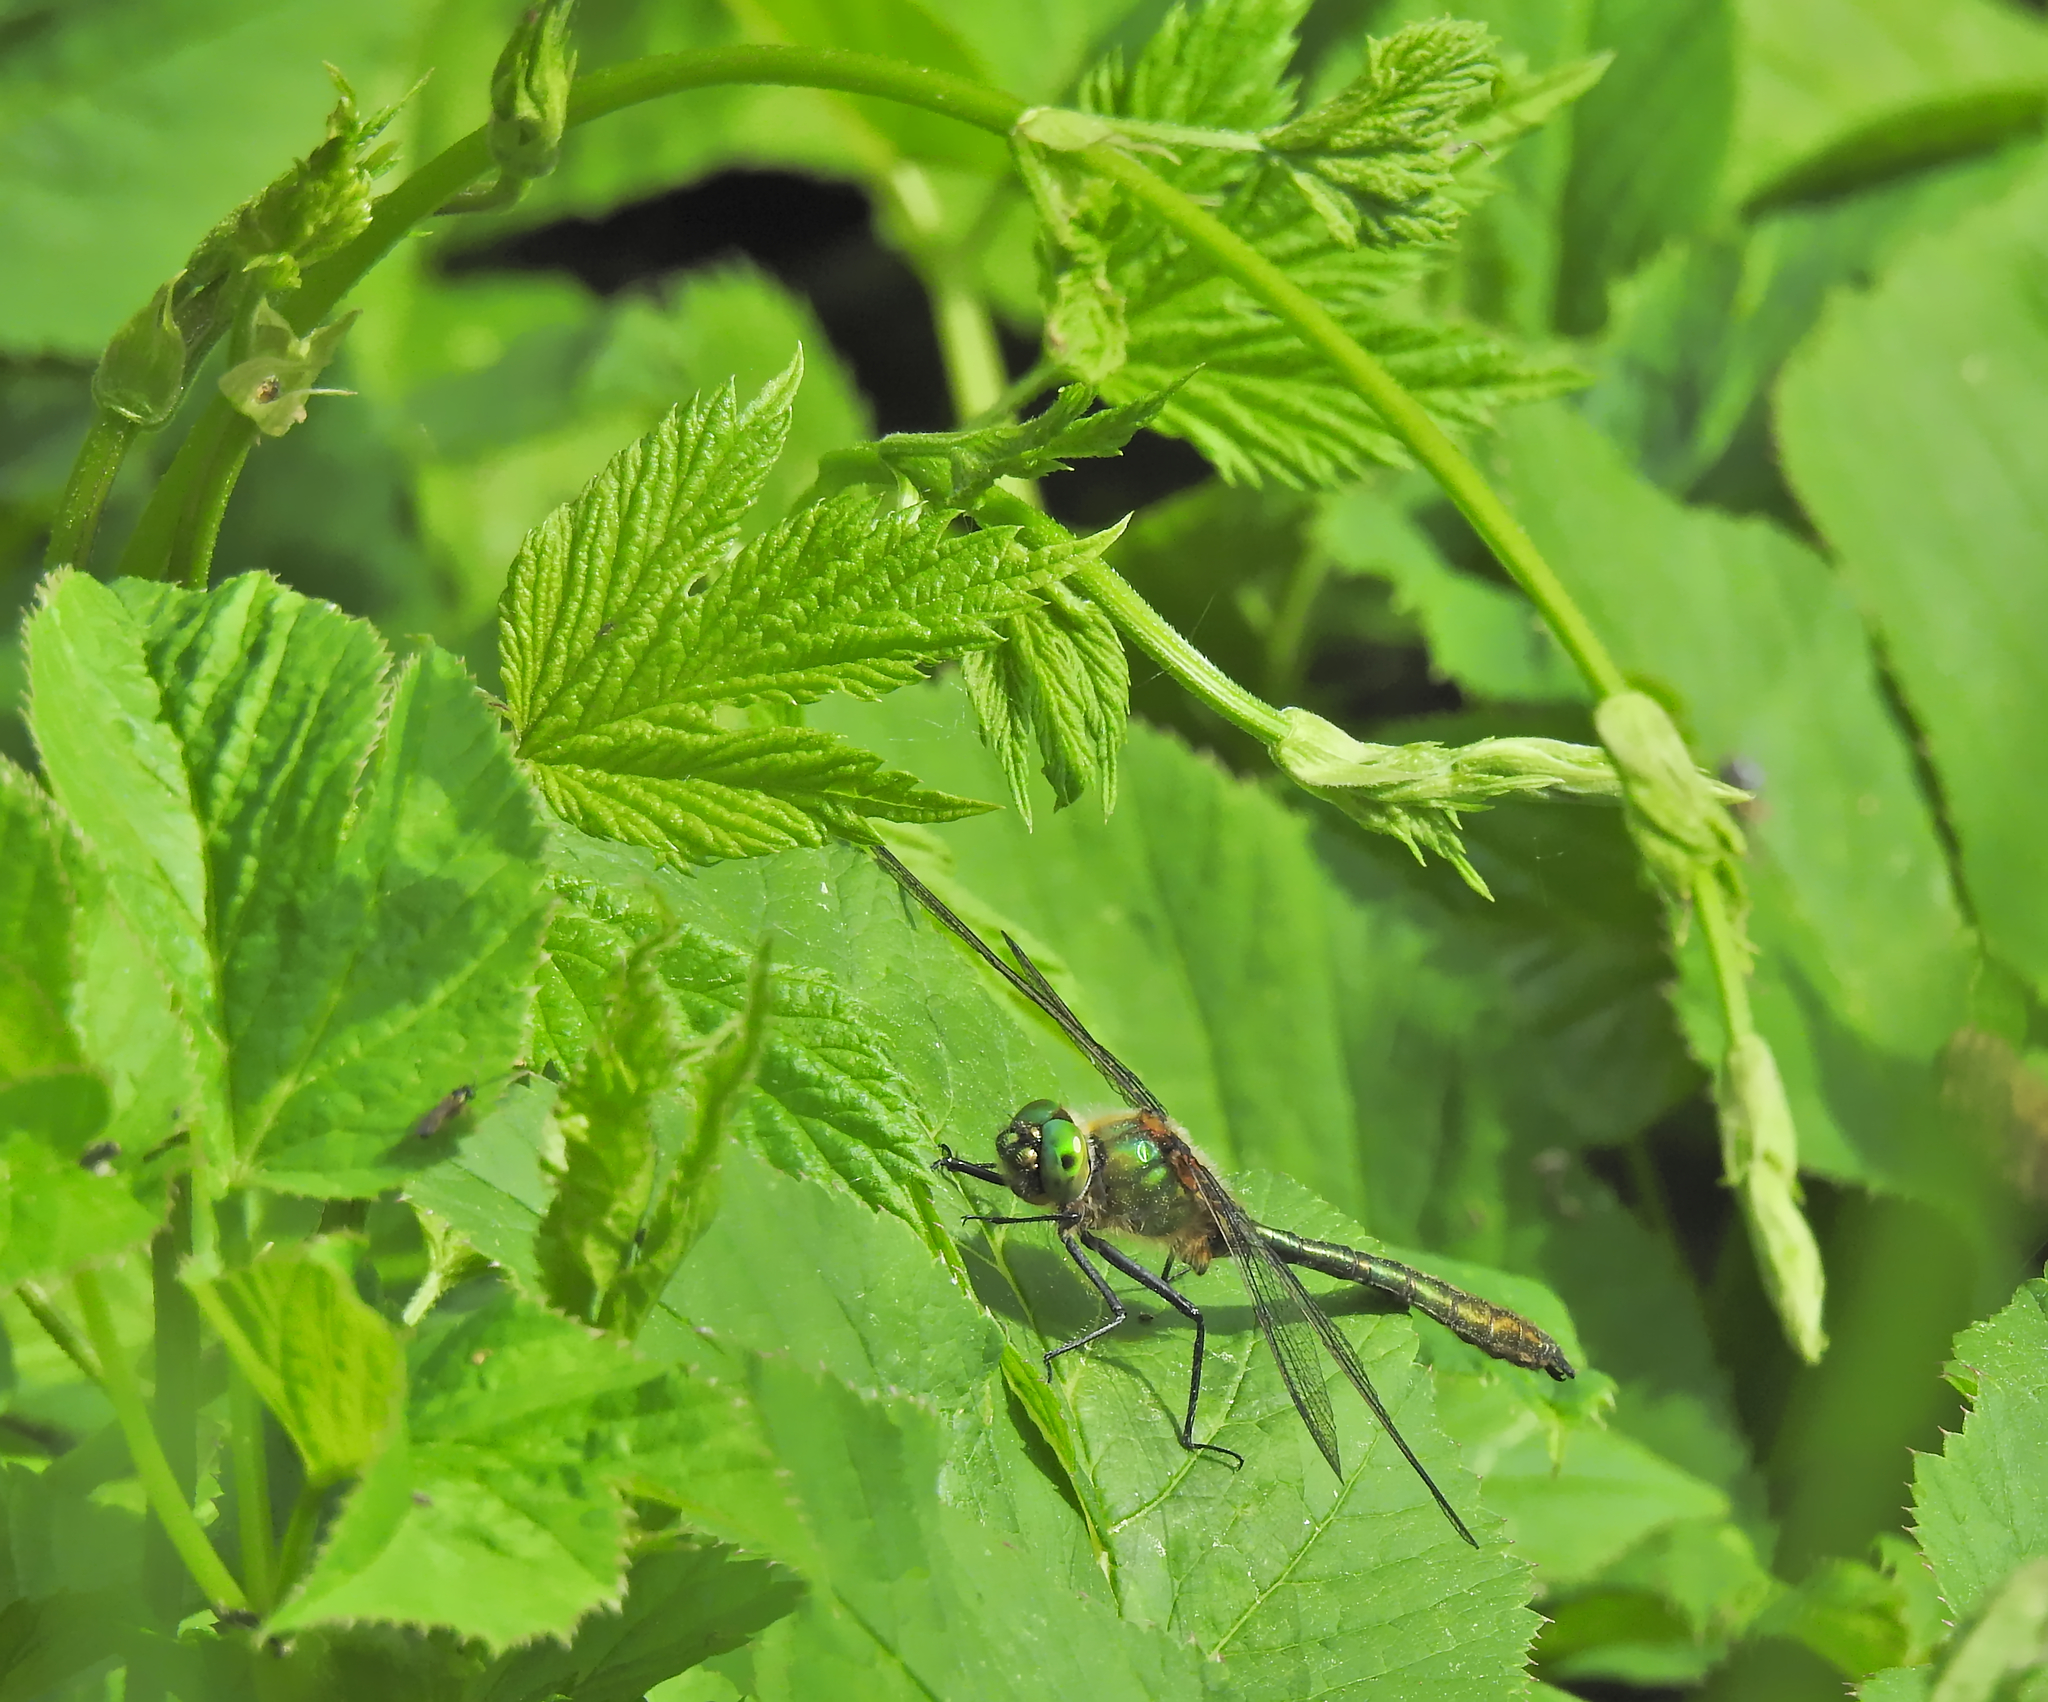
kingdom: Animalia
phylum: Arthropoda
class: Insecta
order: Odonata
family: Corduliidae
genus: Cordulia
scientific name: Cordulia aenea
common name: Downy emerald
